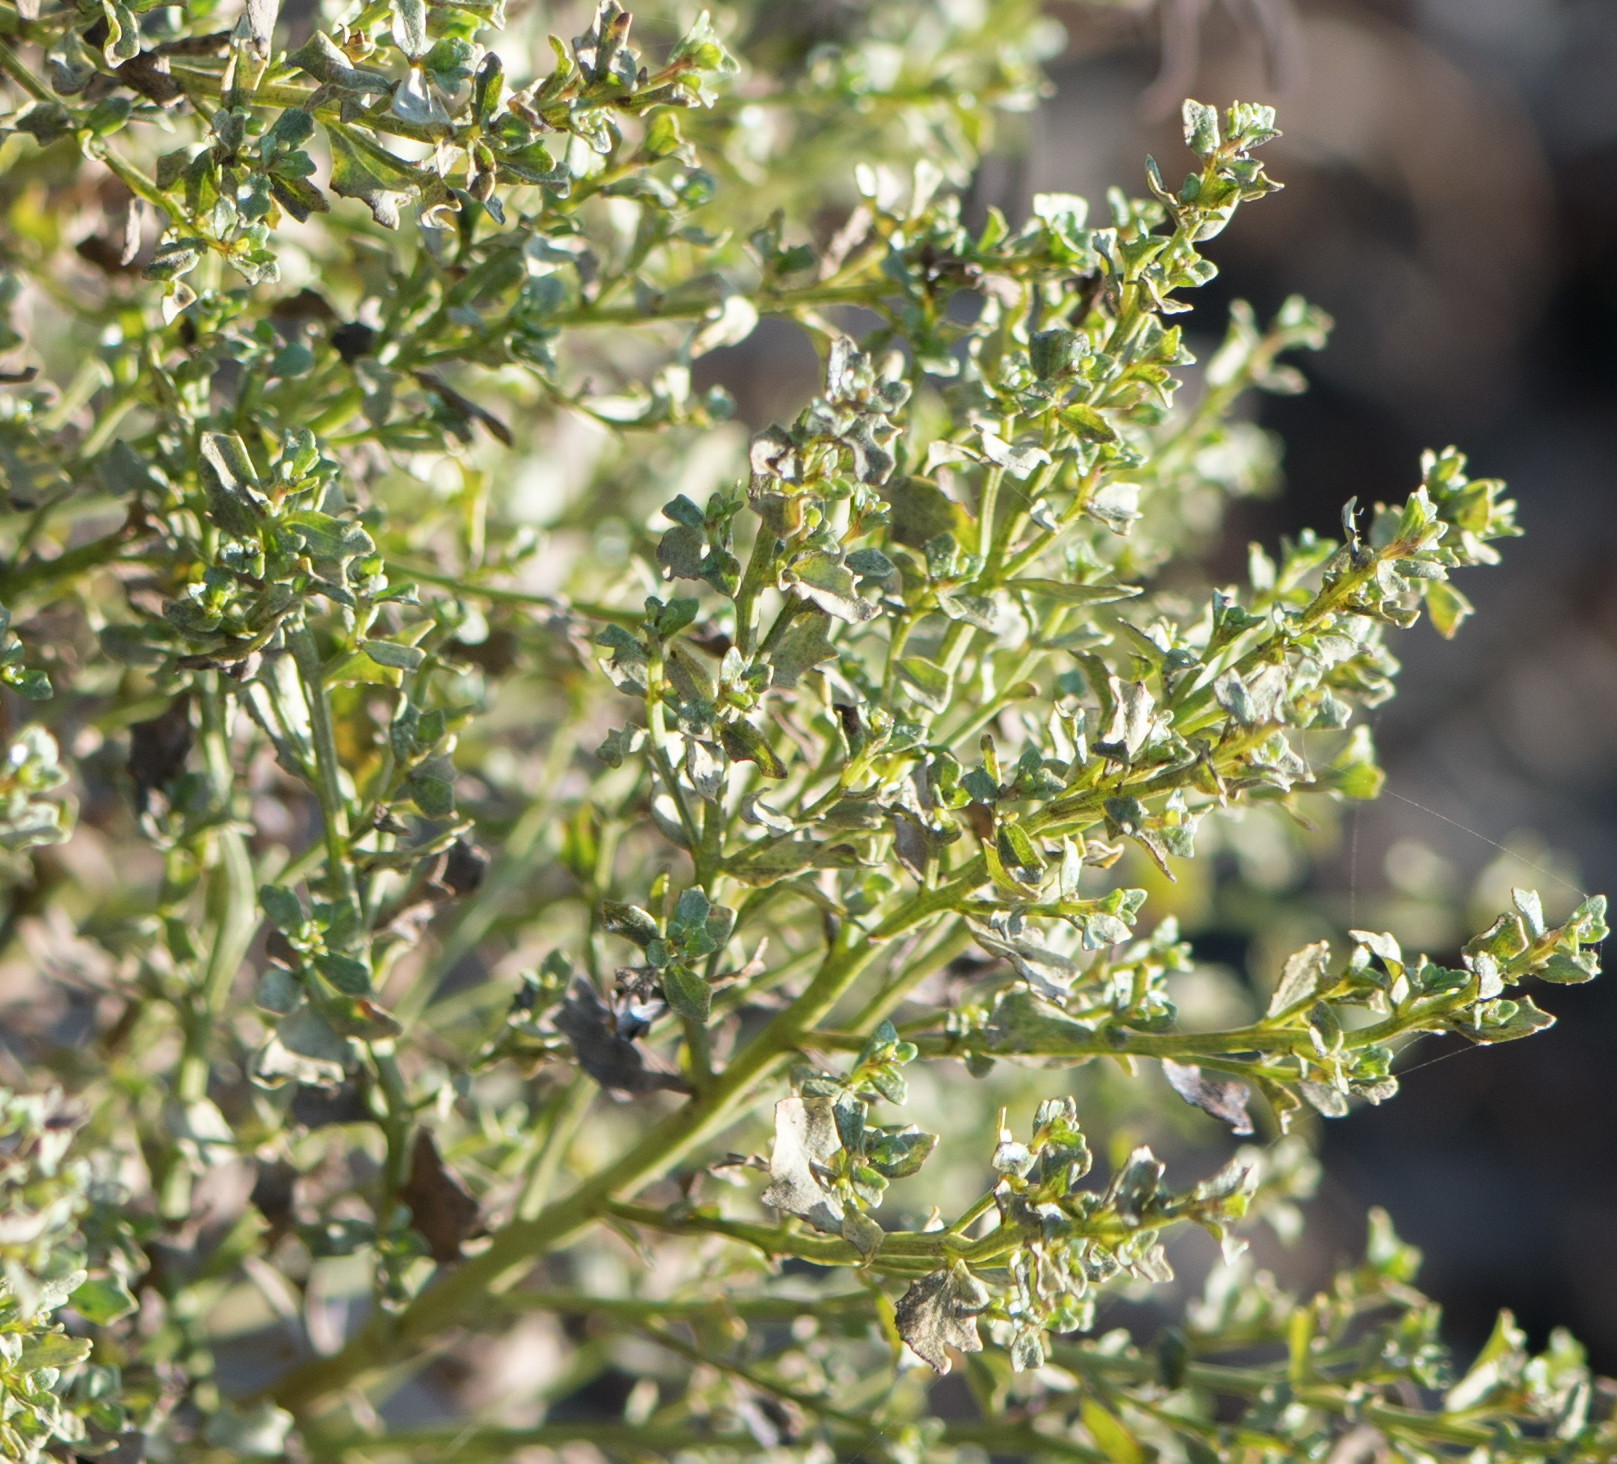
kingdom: Plantae
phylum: Tracheophyta
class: Magnoliopsida
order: Asterales
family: Asteraceae
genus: Baccharis
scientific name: Baccharis pilularis
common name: Coyotebrush
